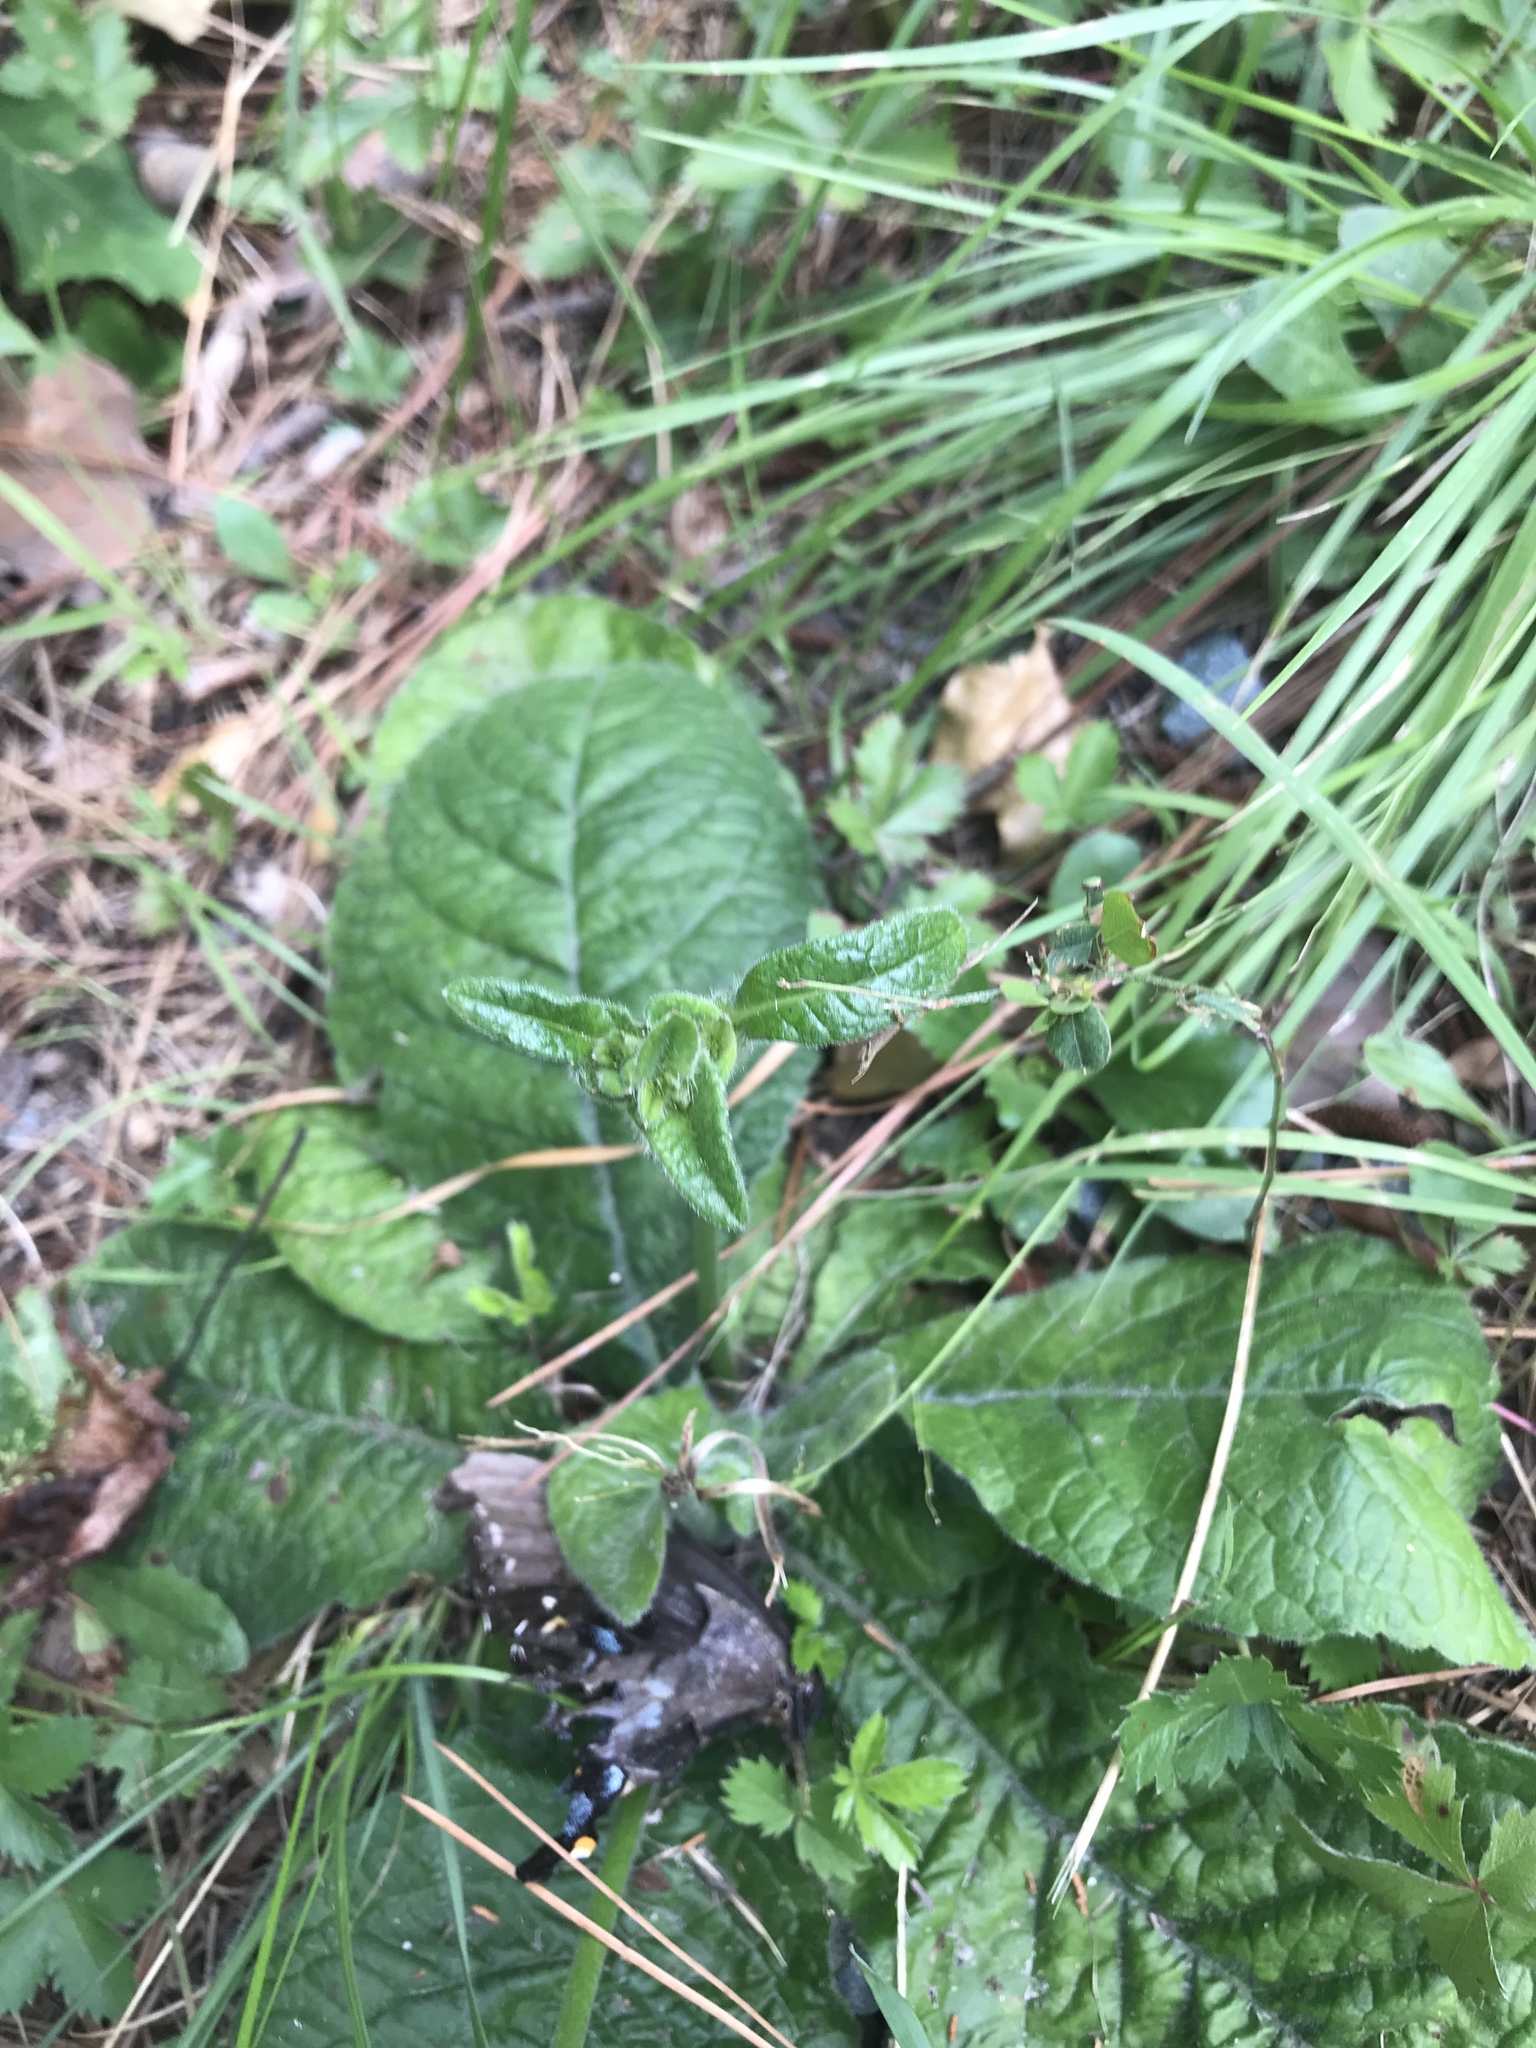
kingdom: Plantae
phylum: Tracheophyta
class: Magnoliopsida
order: Asterales
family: Asteraceae
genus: Elephantopus
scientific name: Elephantopus tomentosus
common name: Tobacco-weed
